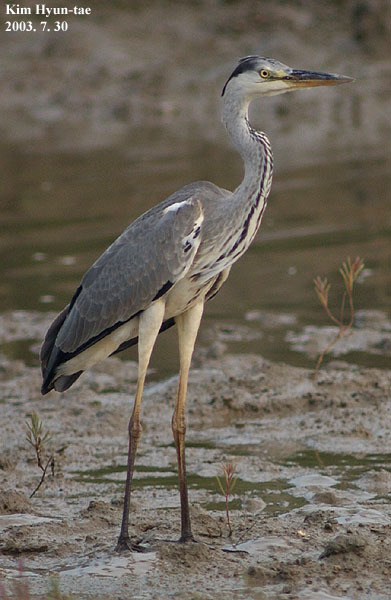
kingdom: Animalia
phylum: Chordata
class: Aves
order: Pelecaniformes
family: Ardeidae
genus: Ardea
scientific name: Ardea cinerea
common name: Grey heron
